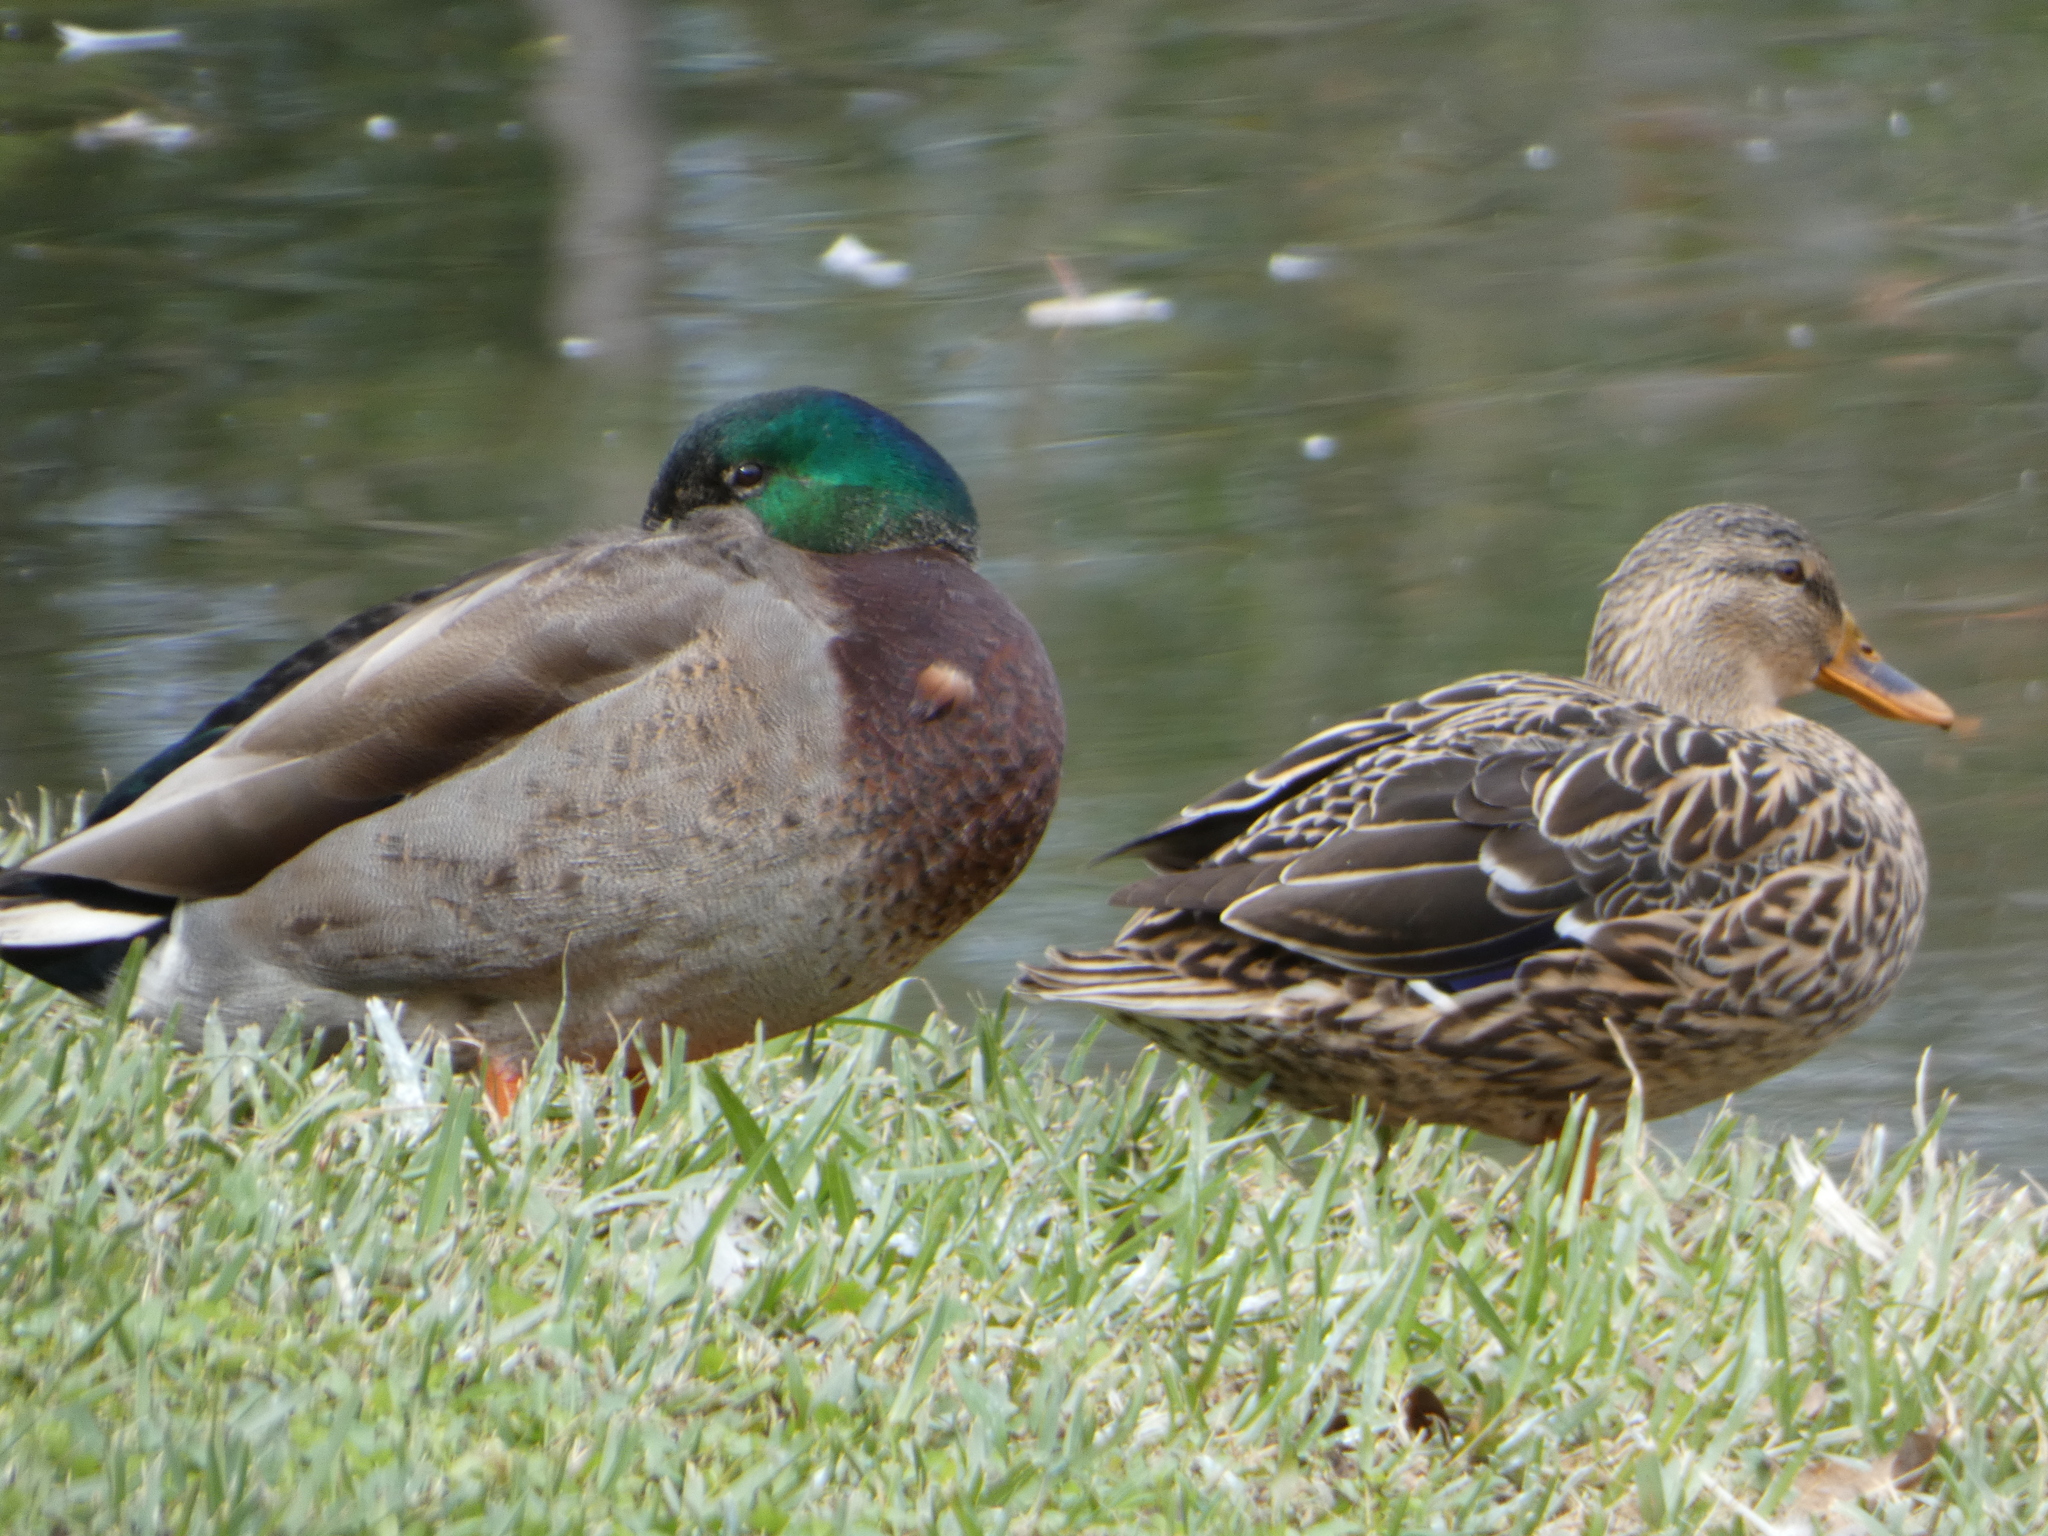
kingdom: Animalia
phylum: Chordata
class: Aves
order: Anseriformes
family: Anatidae
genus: Anas
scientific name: Anas platyrhynchos
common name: Mallard
